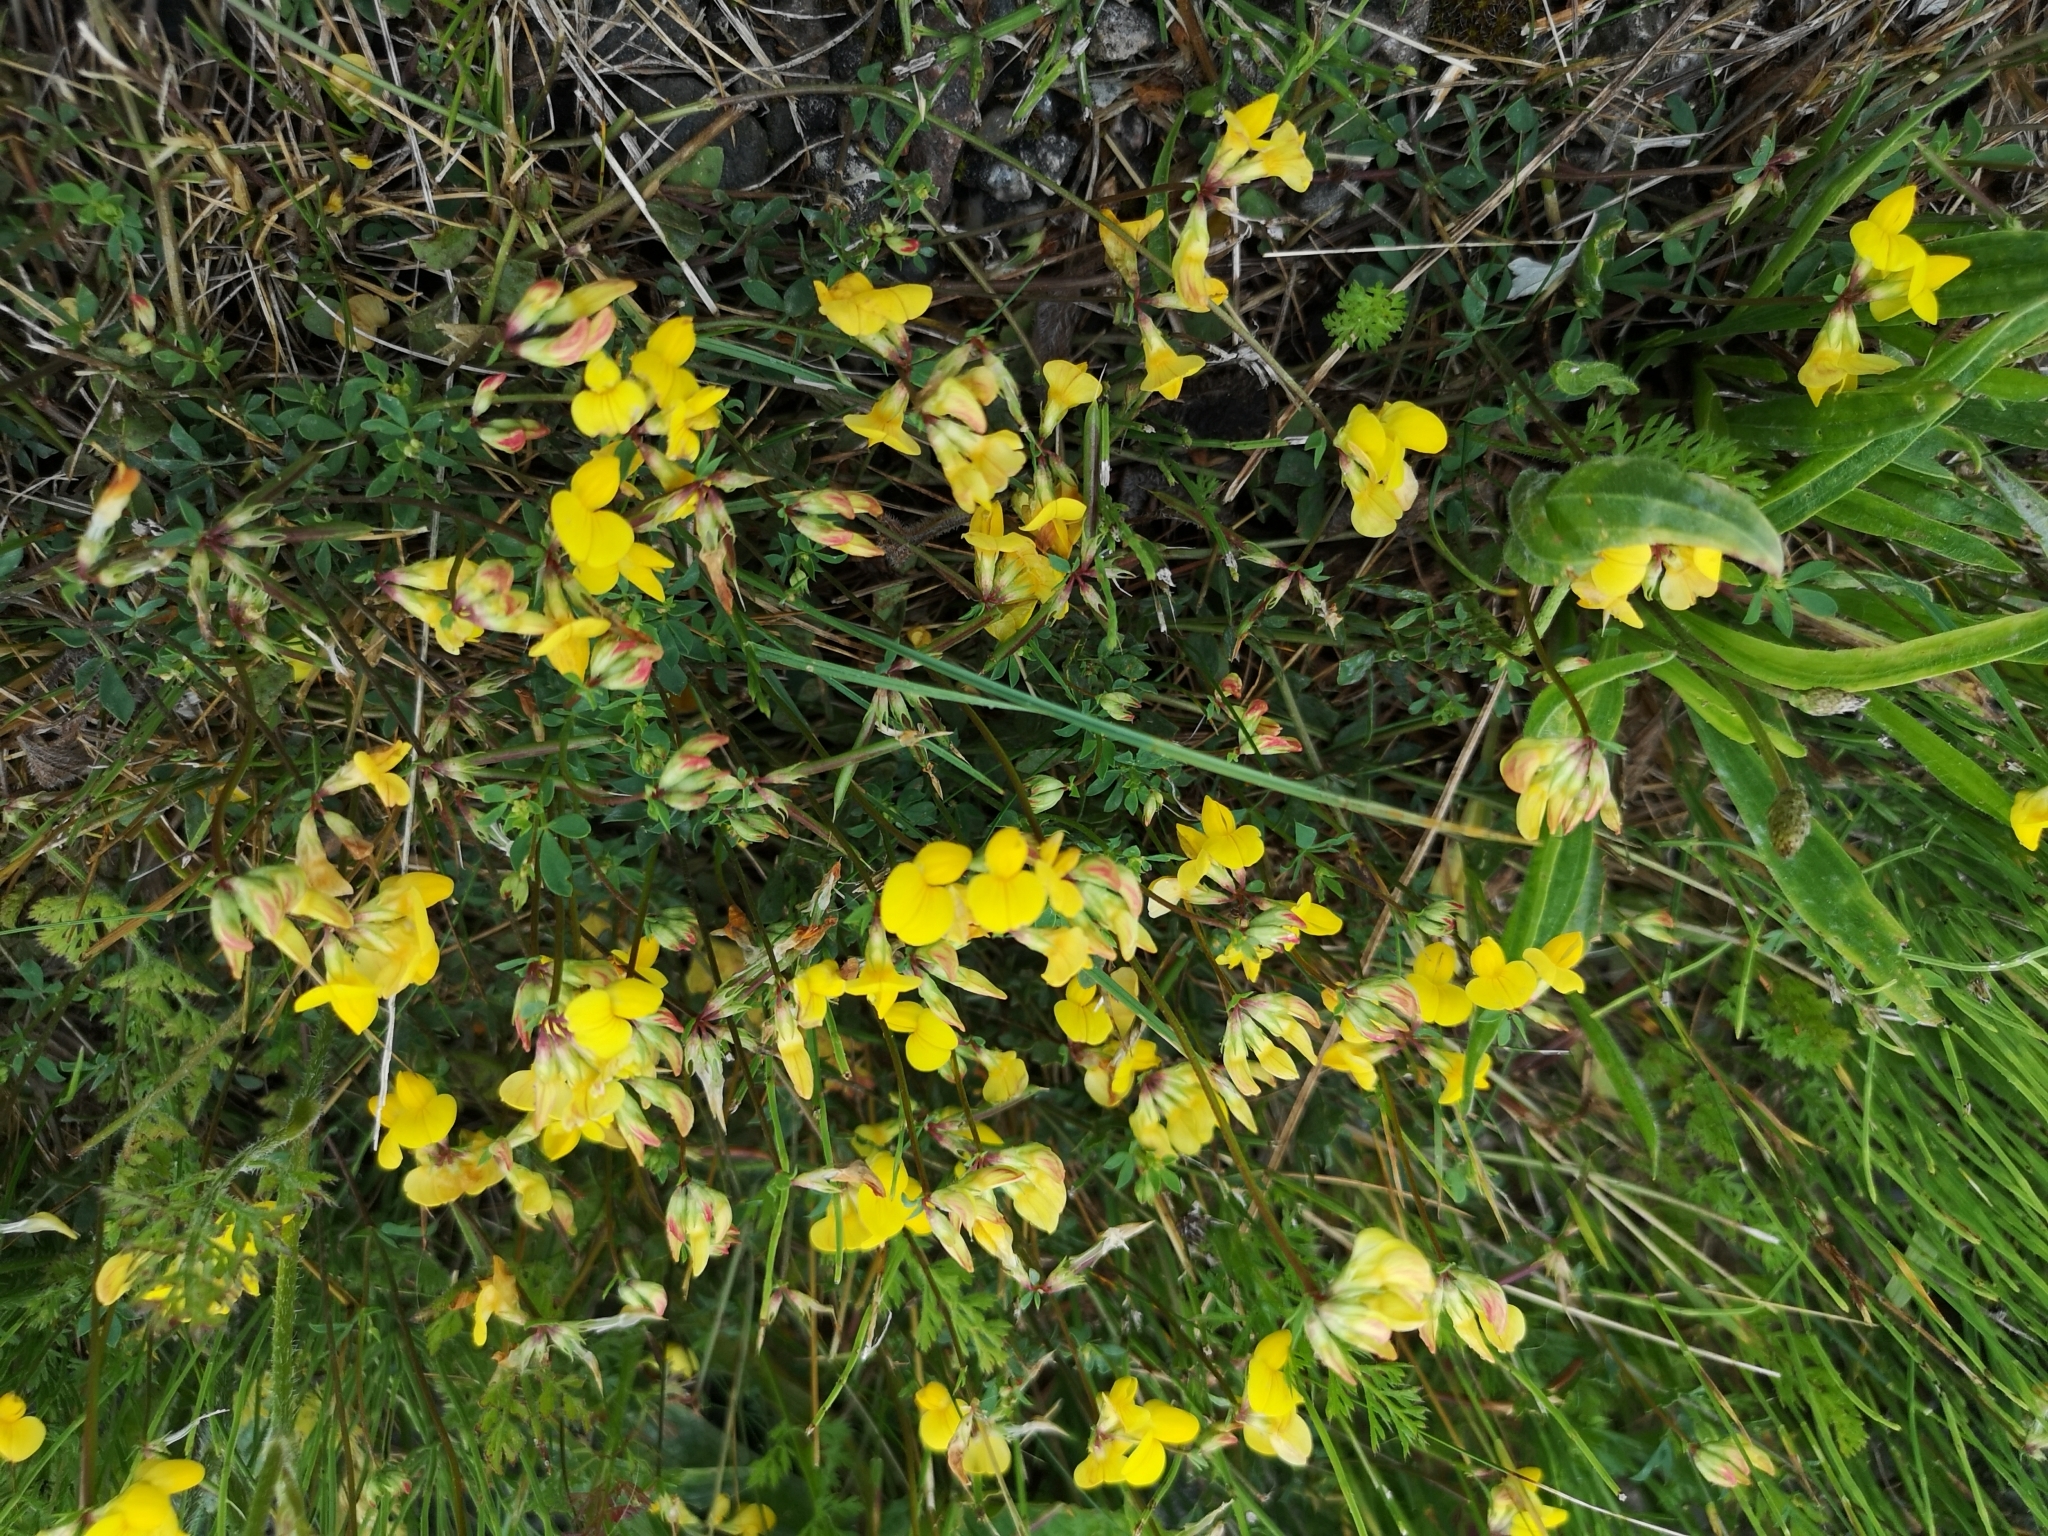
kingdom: Plantae
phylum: Tracheophyta
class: Magnoliopsida
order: Fabales
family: Fabaceae
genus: Lotus
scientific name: Lotus corniculatus
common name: Common bird's-foot-trefoil
